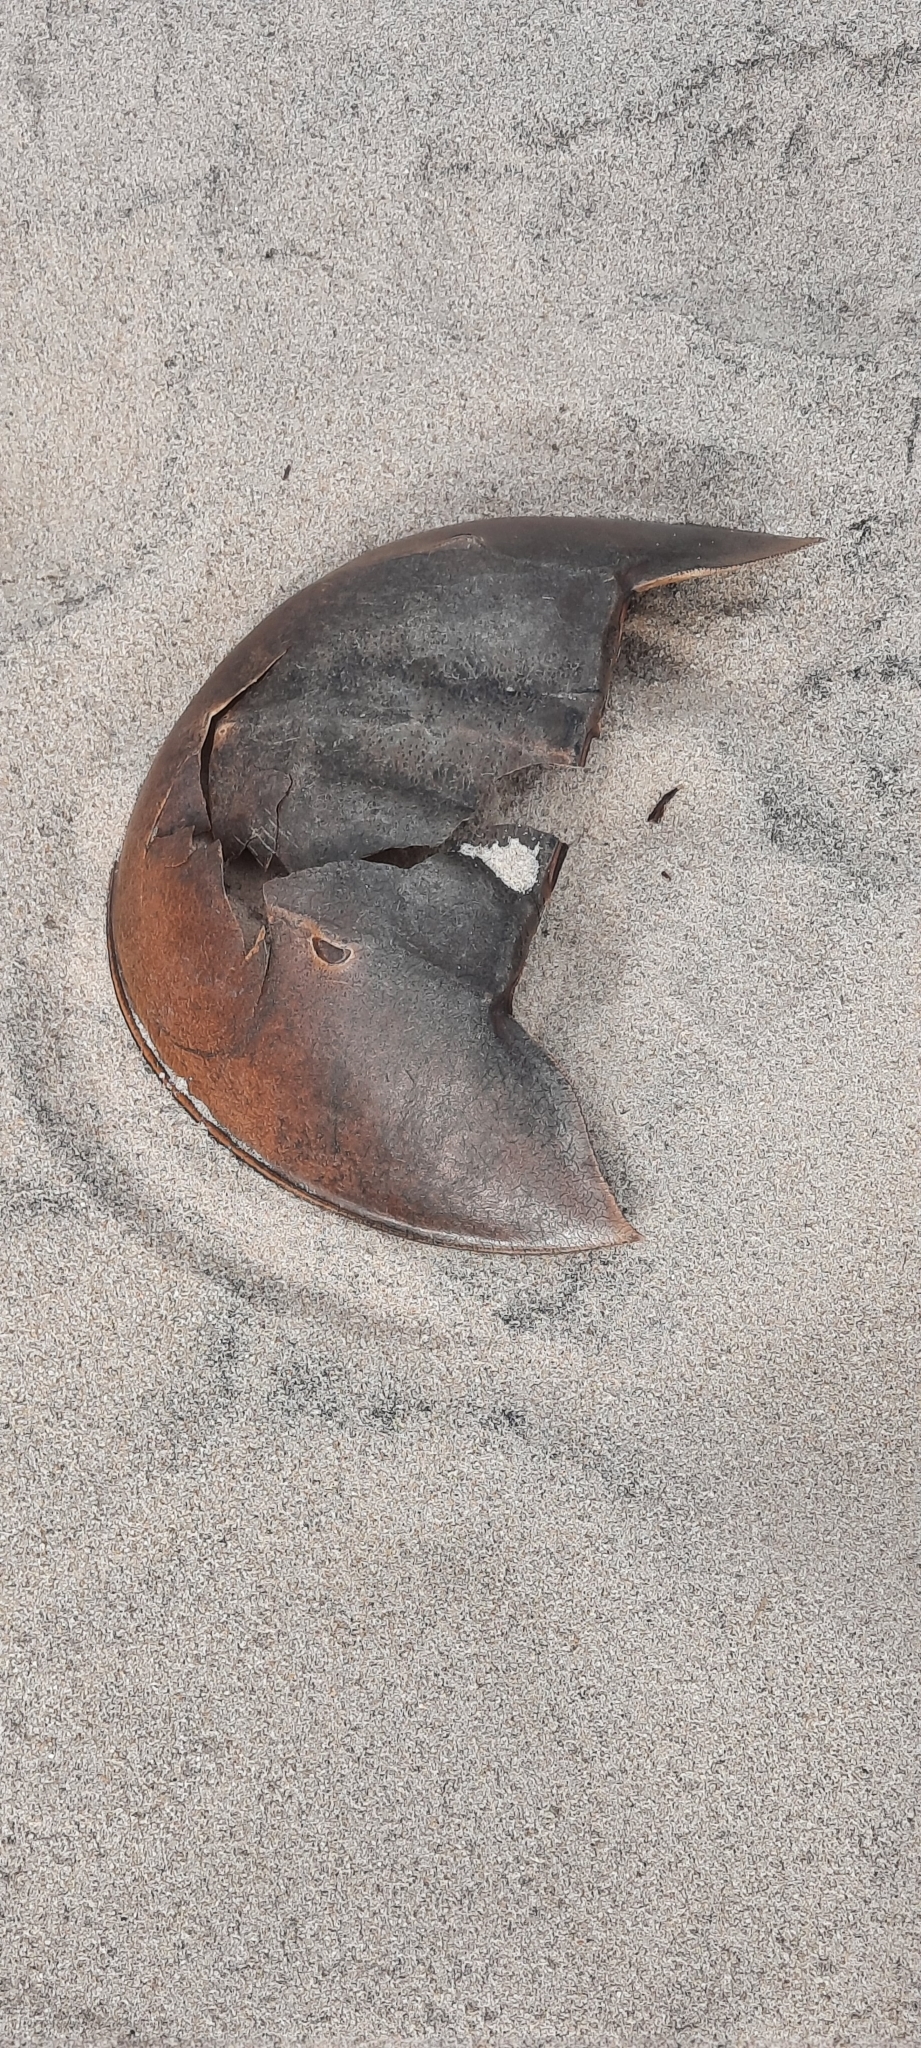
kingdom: Animalia
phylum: Arthropoda
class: Merostomata
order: Xiphosurida
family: Limulidae
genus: Limulus
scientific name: Limulus polyphemus
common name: Horseshoe crab
